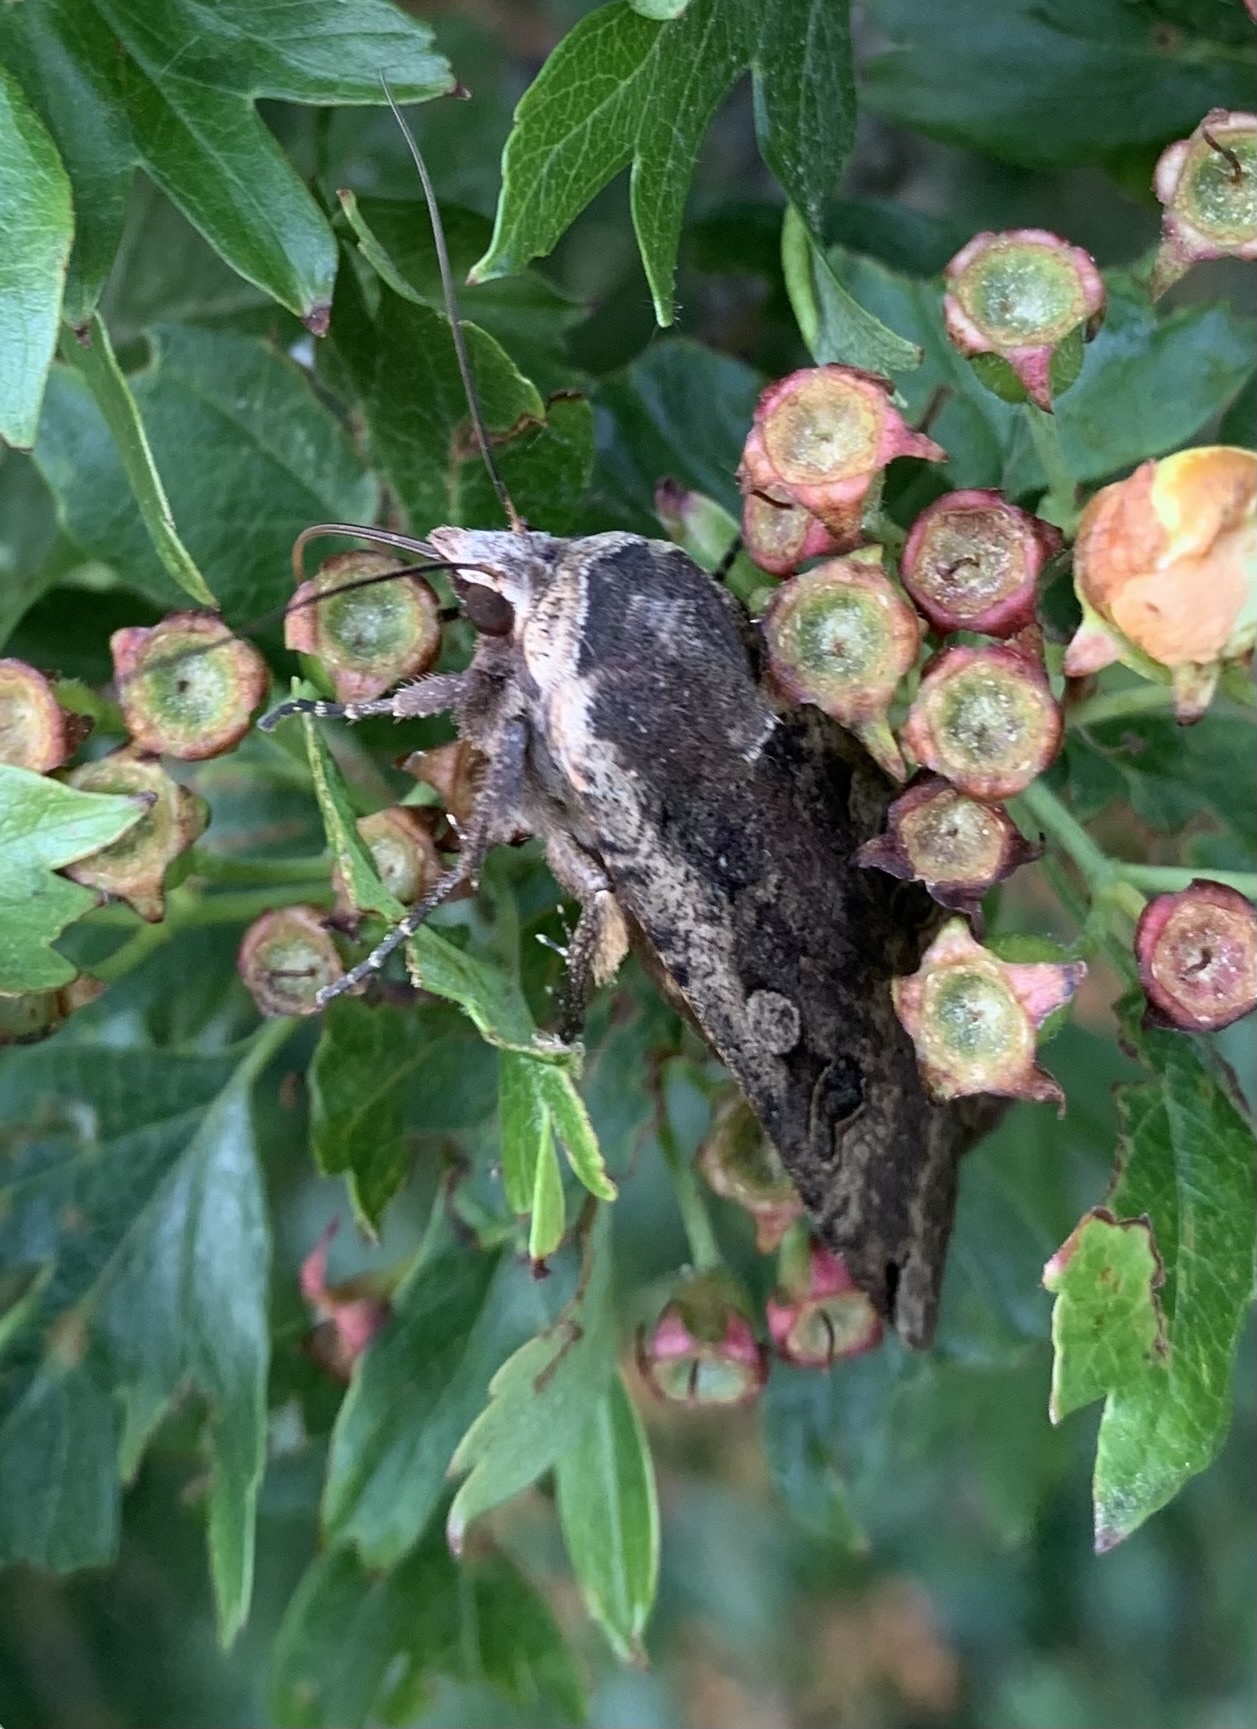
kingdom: Animalia
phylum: Arthropoda
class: Insecta
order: Lepidoptera
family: Noctuidae
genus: Noctua
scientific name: Noctua pronuba
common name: Large yellow underwing
